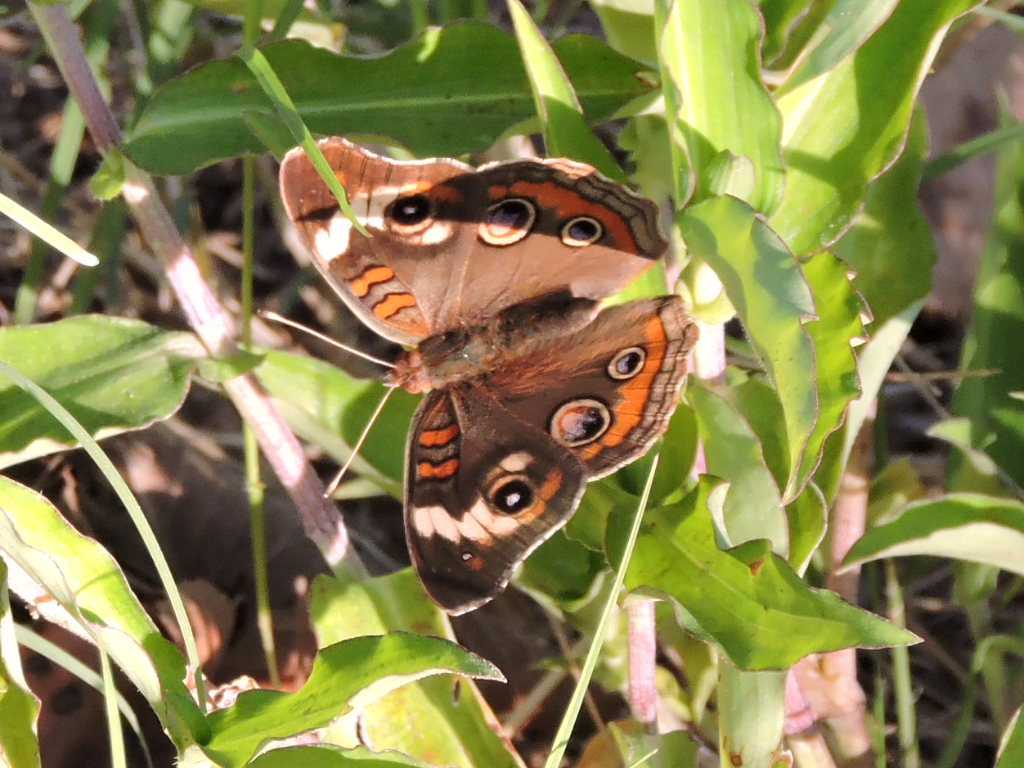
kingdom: Animalia
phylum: Arthropoda
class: Insecta
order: Lepidoptera
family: Nymphalidae
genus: Junonia
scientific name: Junonia coenia
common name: Common buckeye
